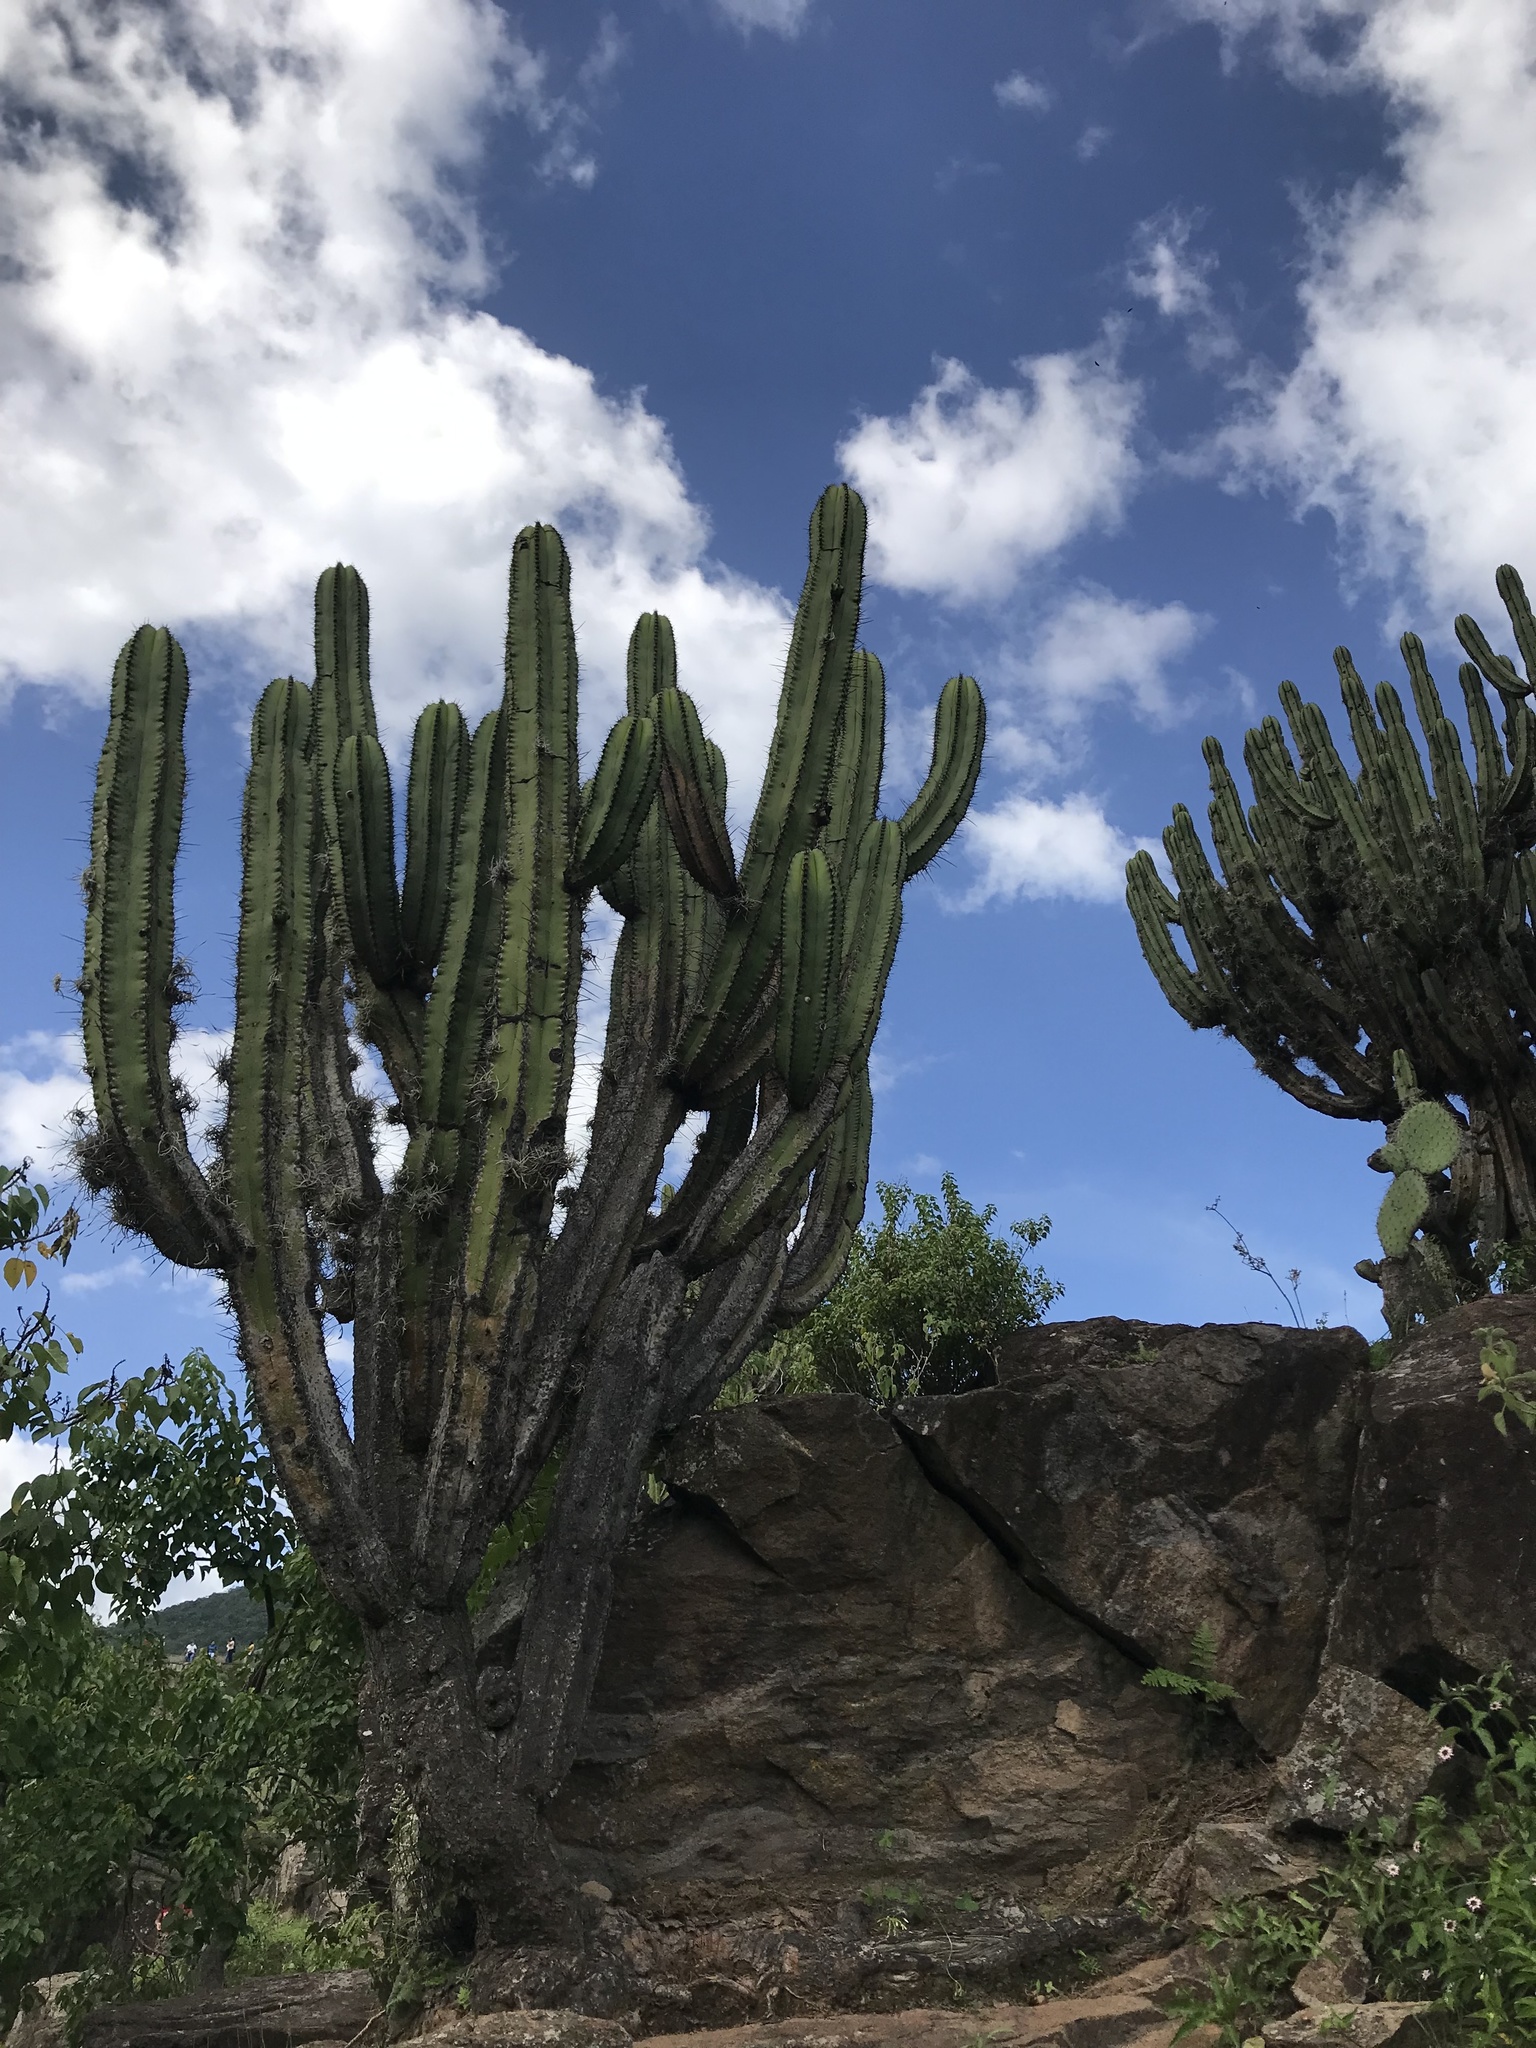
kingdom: Plantae
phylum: Tracheophyta
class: Magnoliopsida
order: Caryophyllales
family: Cactaceae
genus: Myrtillocactus
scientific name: Myrtillocactus schenckii
